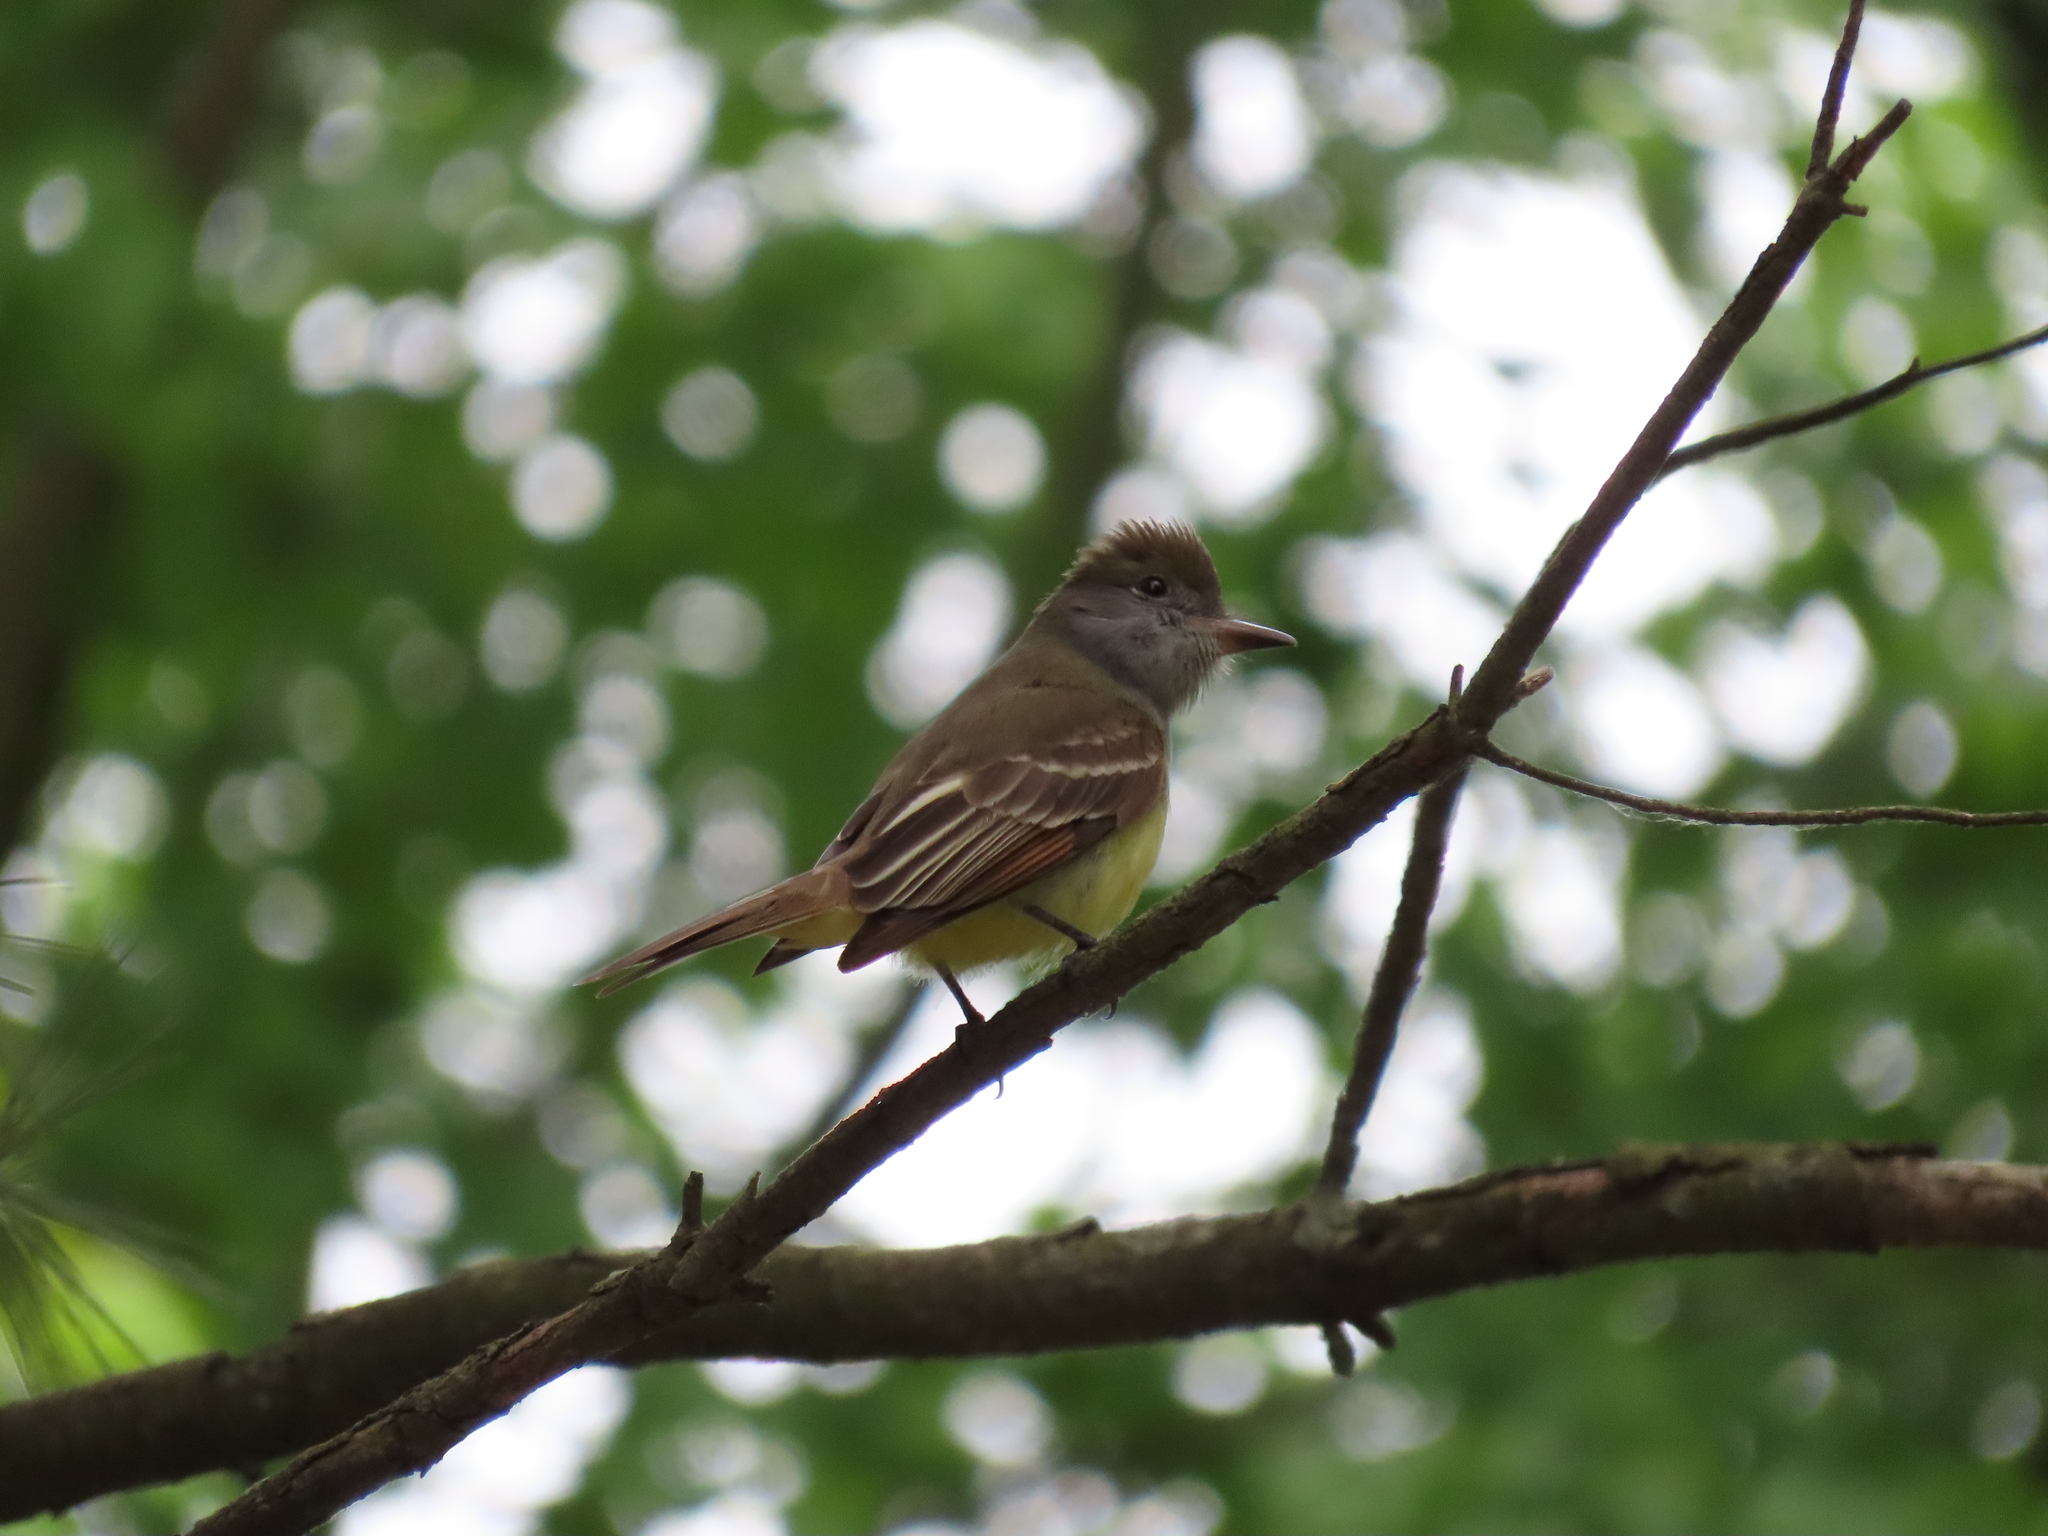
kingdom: Animalia
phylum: Chordata
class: Aves
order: Passeriformes
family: Tyrannidae
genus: Myiarchus
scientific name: Myiarchus crinitus
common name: Great crested flycatcher
